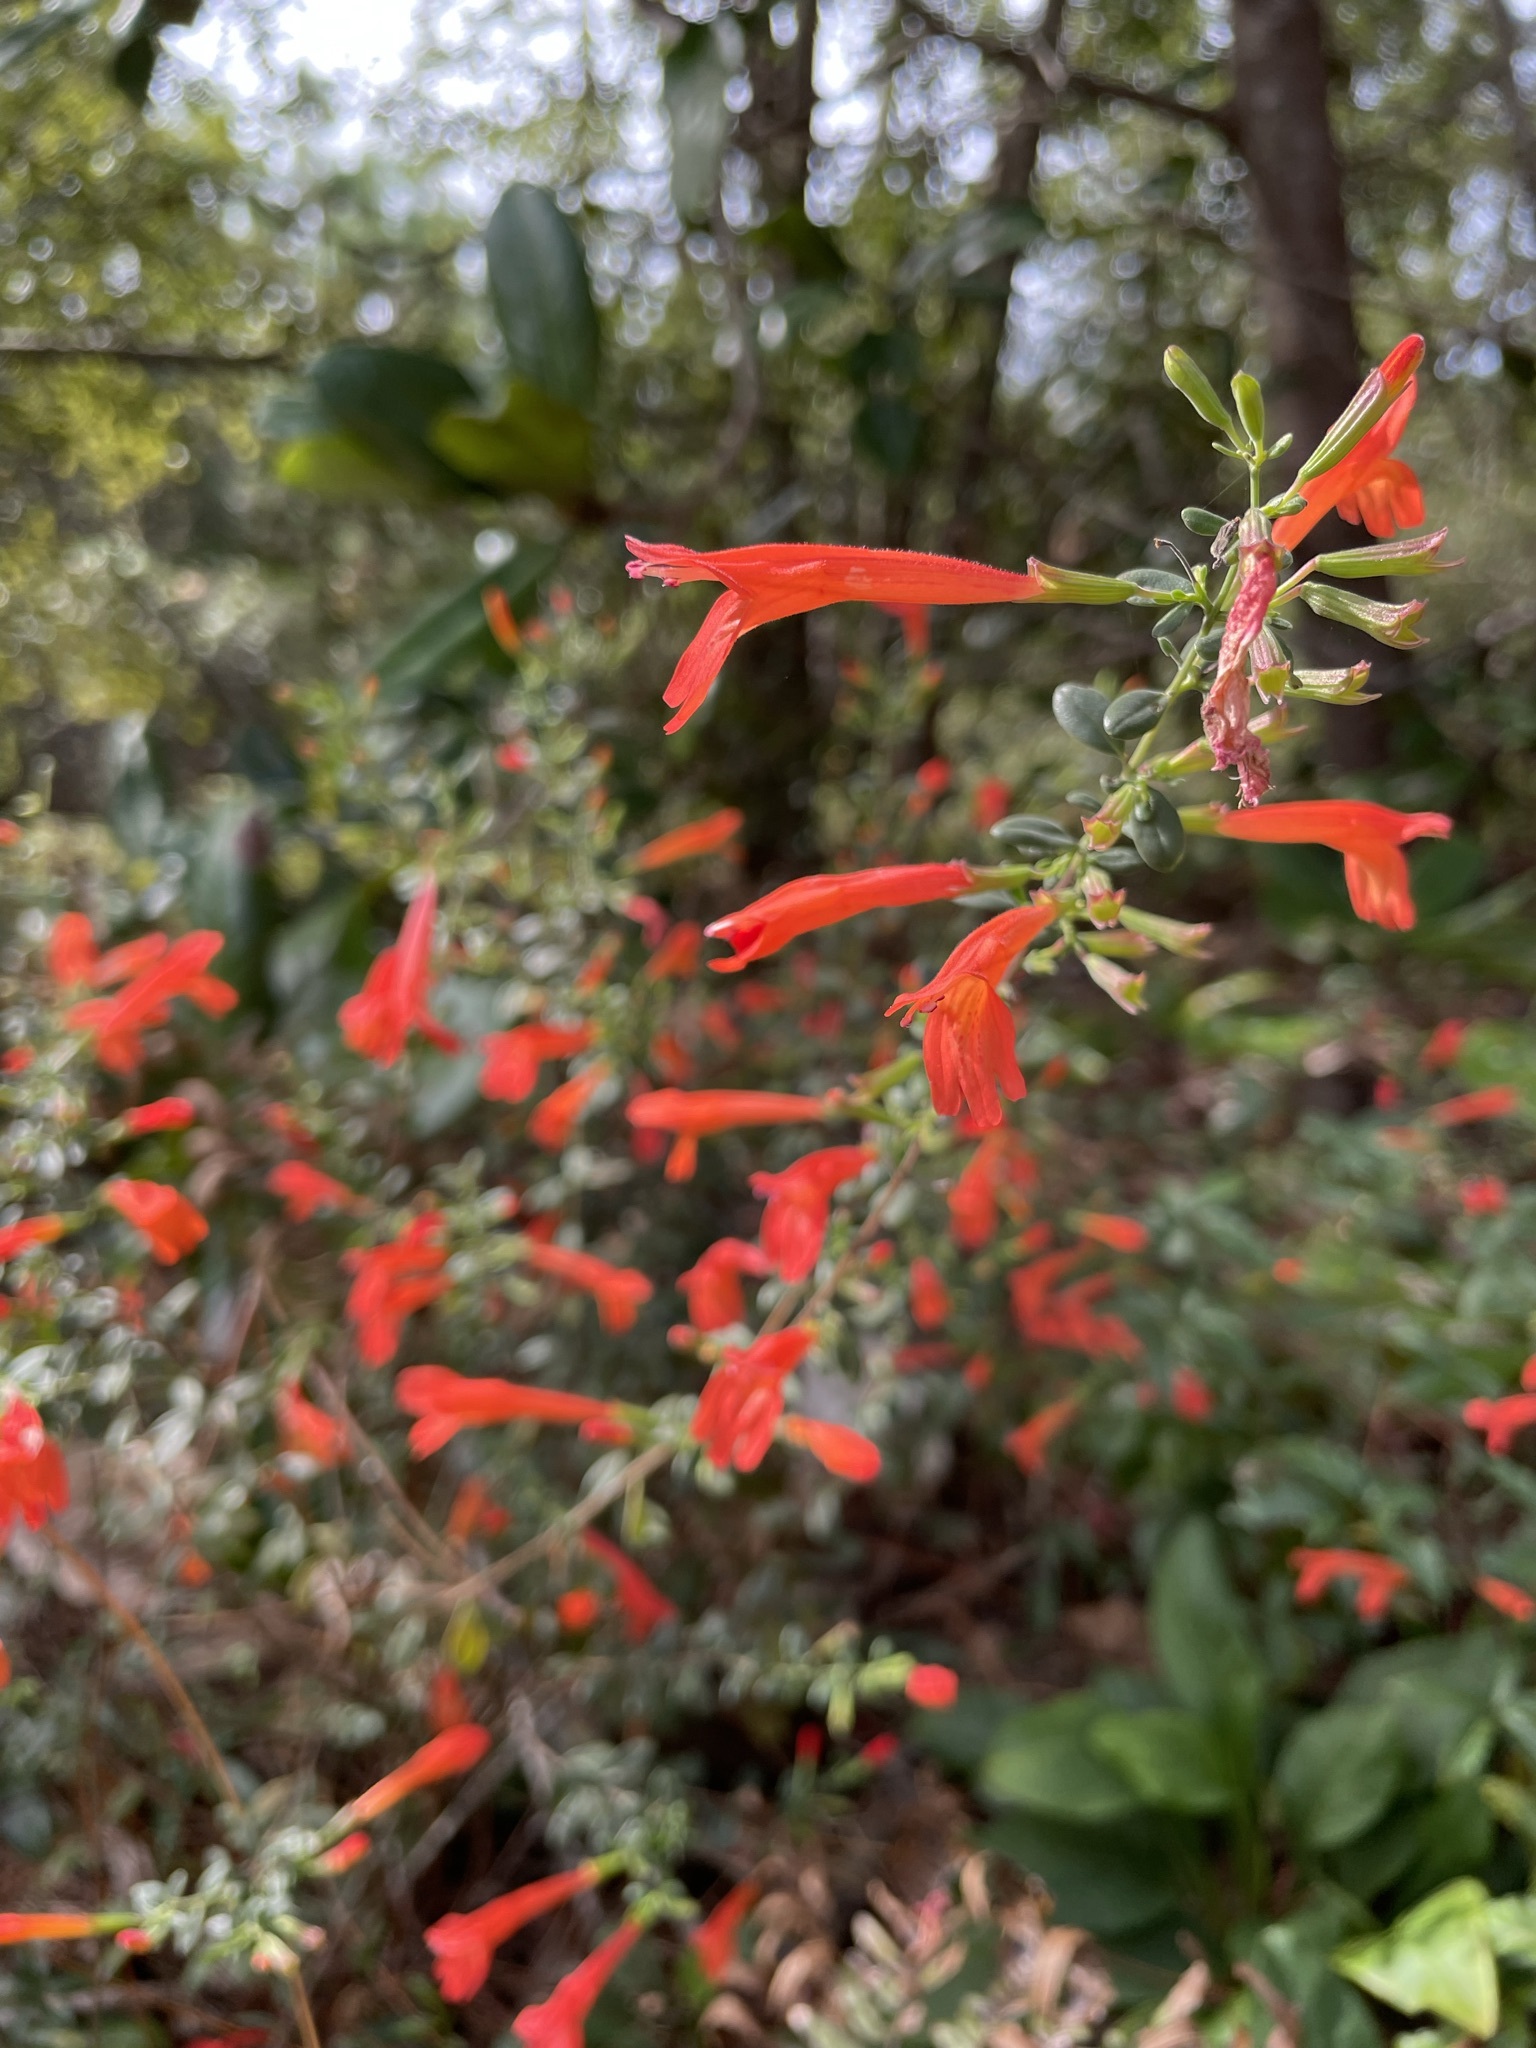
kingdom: Plantae
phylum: Tracheophyta
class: Magnoliopsida
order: Lamiales
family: Lamiaceae
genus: Clinopodium
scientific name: Clinopodium coccineum
